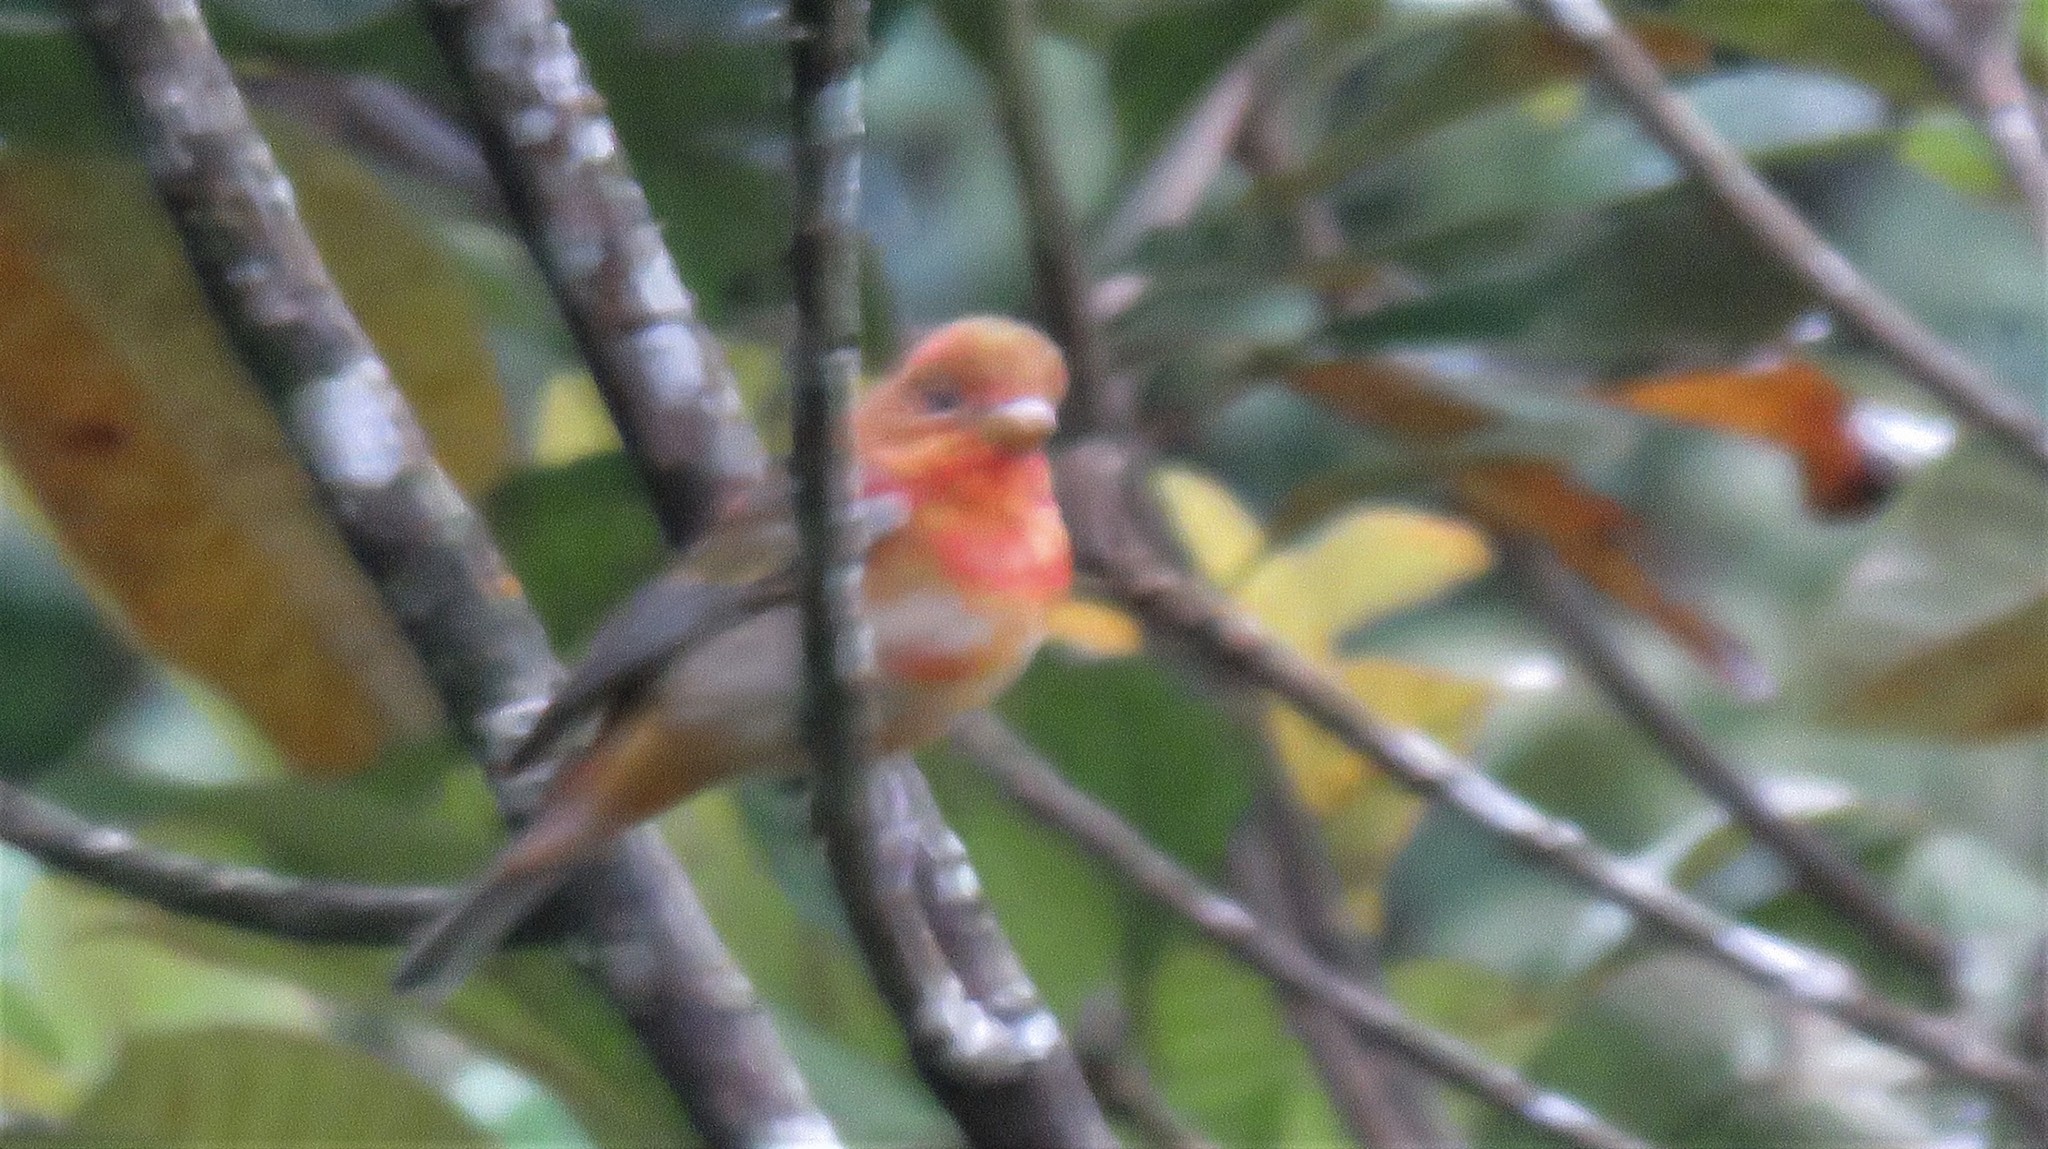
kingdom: Animalia
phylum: Chordata
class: Aves
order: Passeriformes
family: Cardinalidae
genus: Piranga
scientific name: Piranga rubra
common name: Summer tanager
